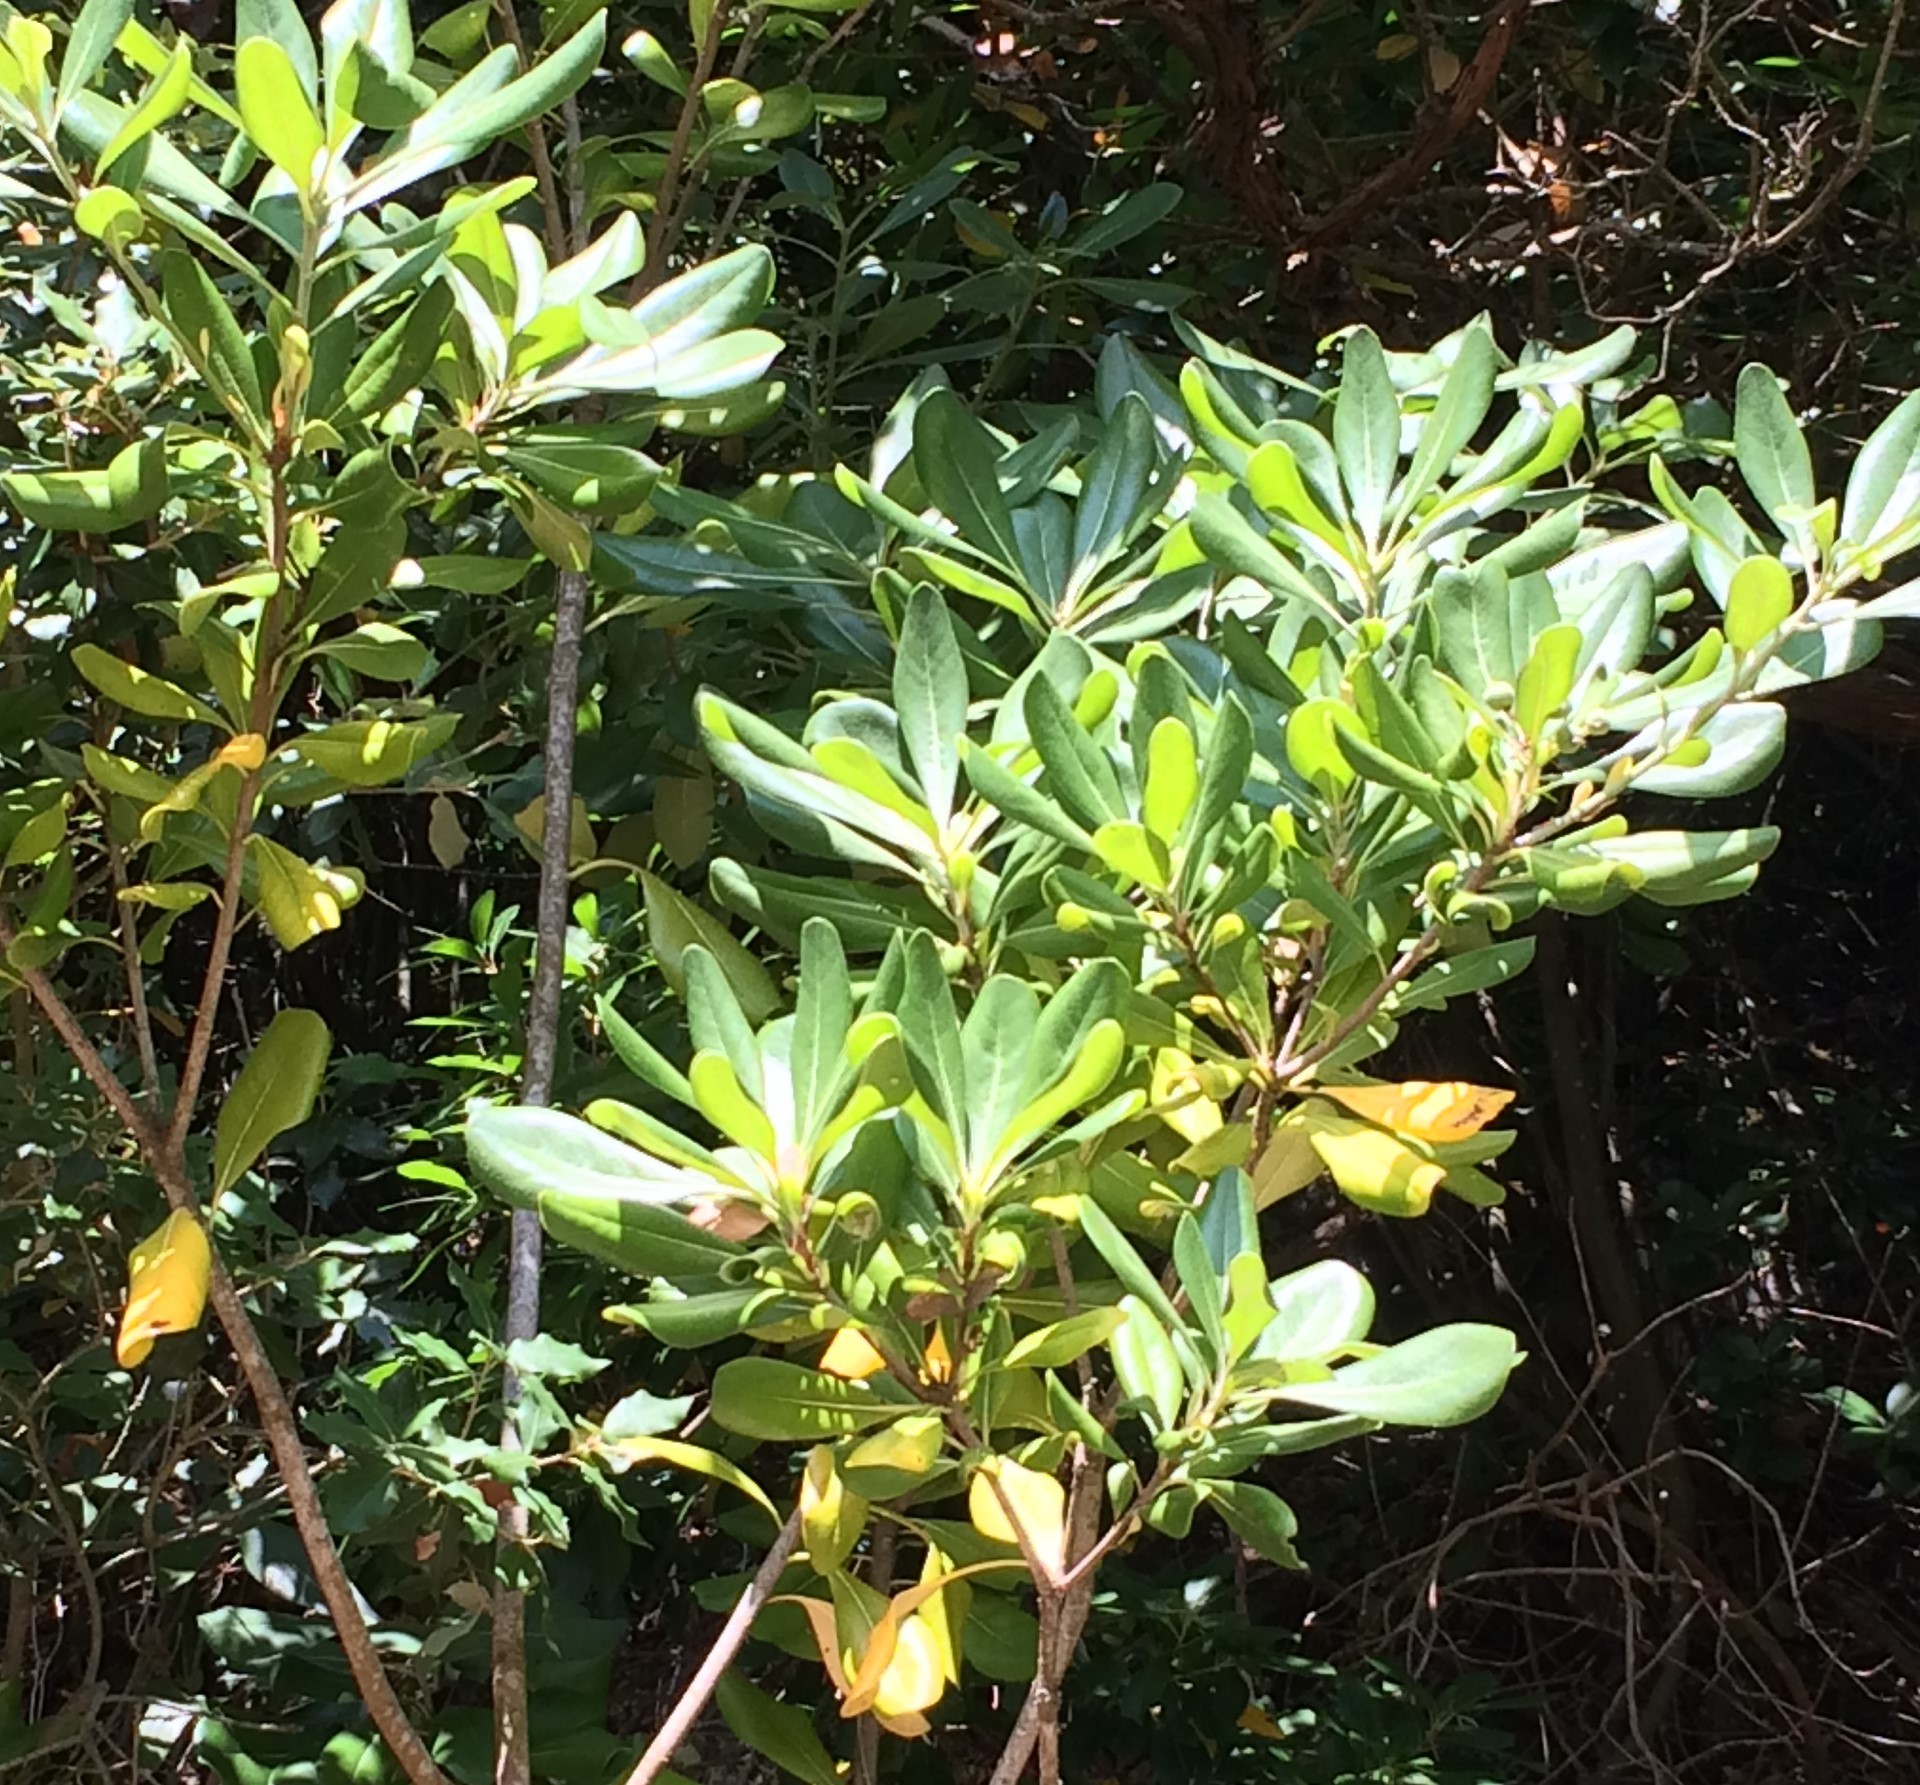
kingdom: Plantae
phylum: Tracheophyta
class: Magnoliopsida
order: Apiales
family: Pittosporaceae
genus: Pittosporum
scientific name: Pittosporum tobira
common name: Japanese cheesewood
